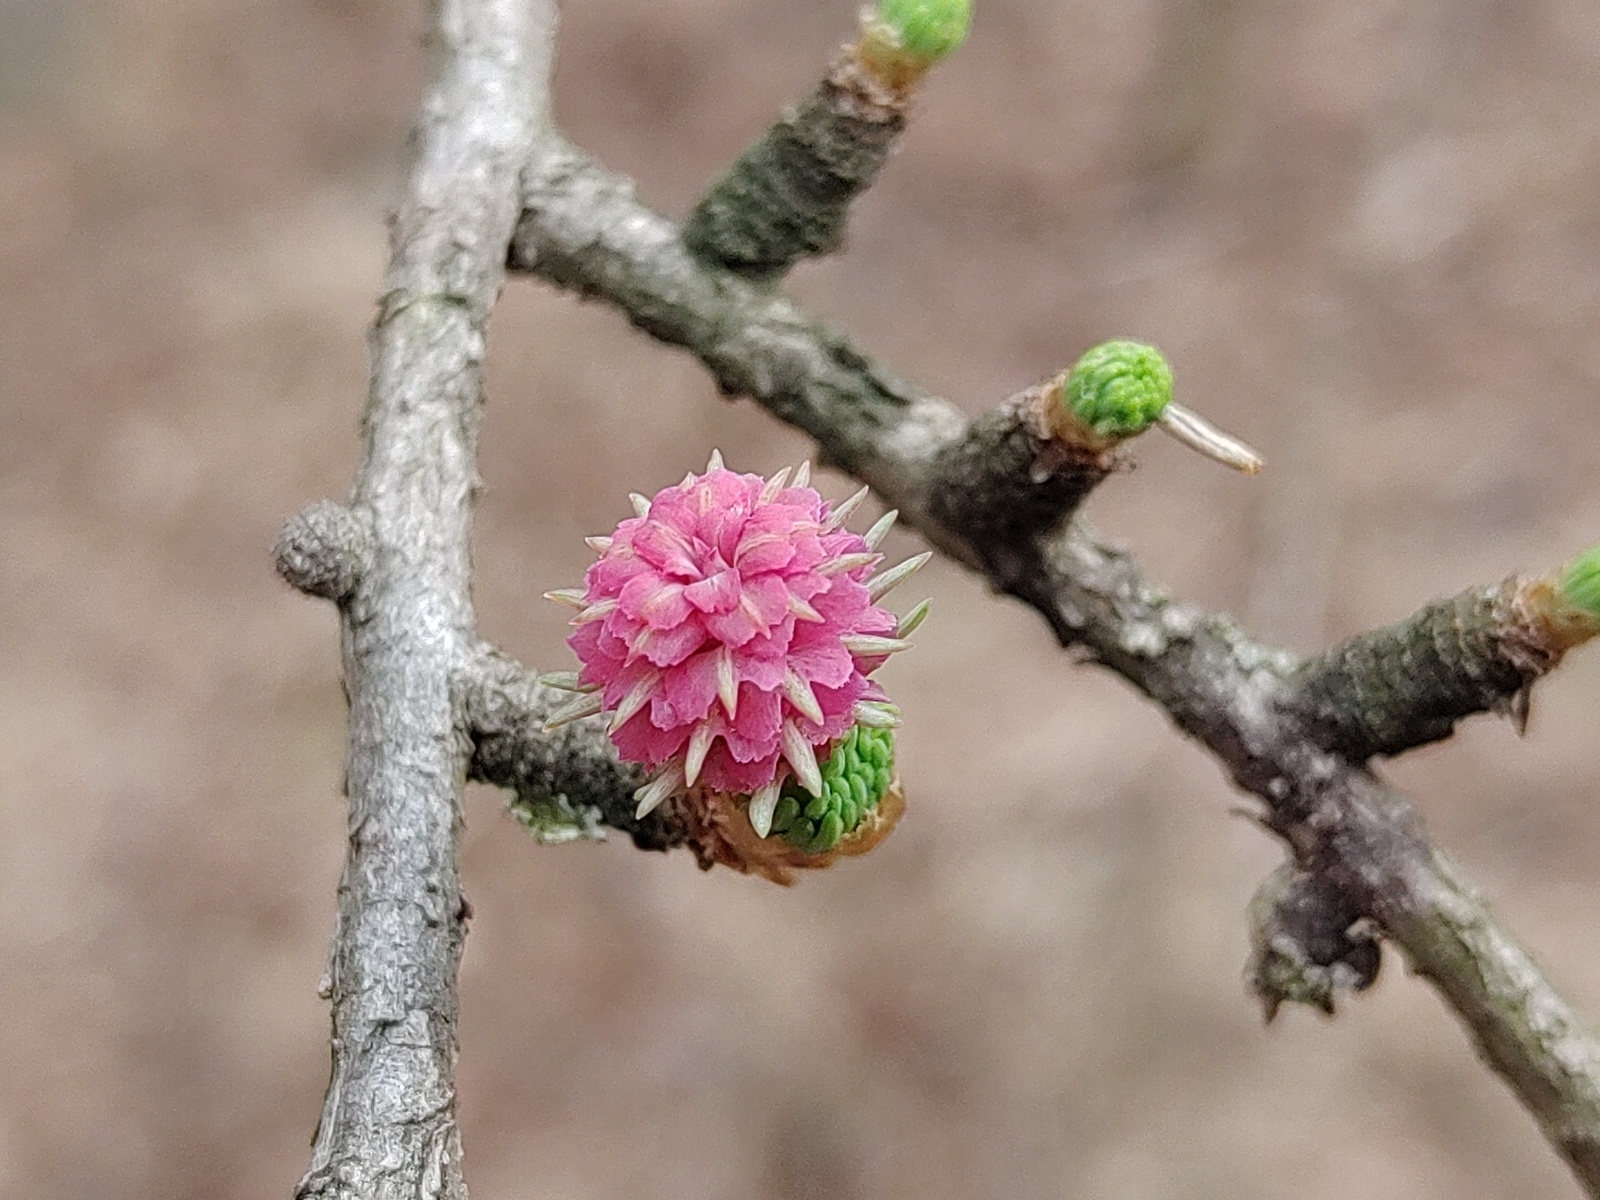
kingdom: Plantae
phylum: Tracheophyta
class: Pinopsida
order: Pinales
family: Pinaceae
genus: Larix
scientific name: Larix decidua
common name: European larch
